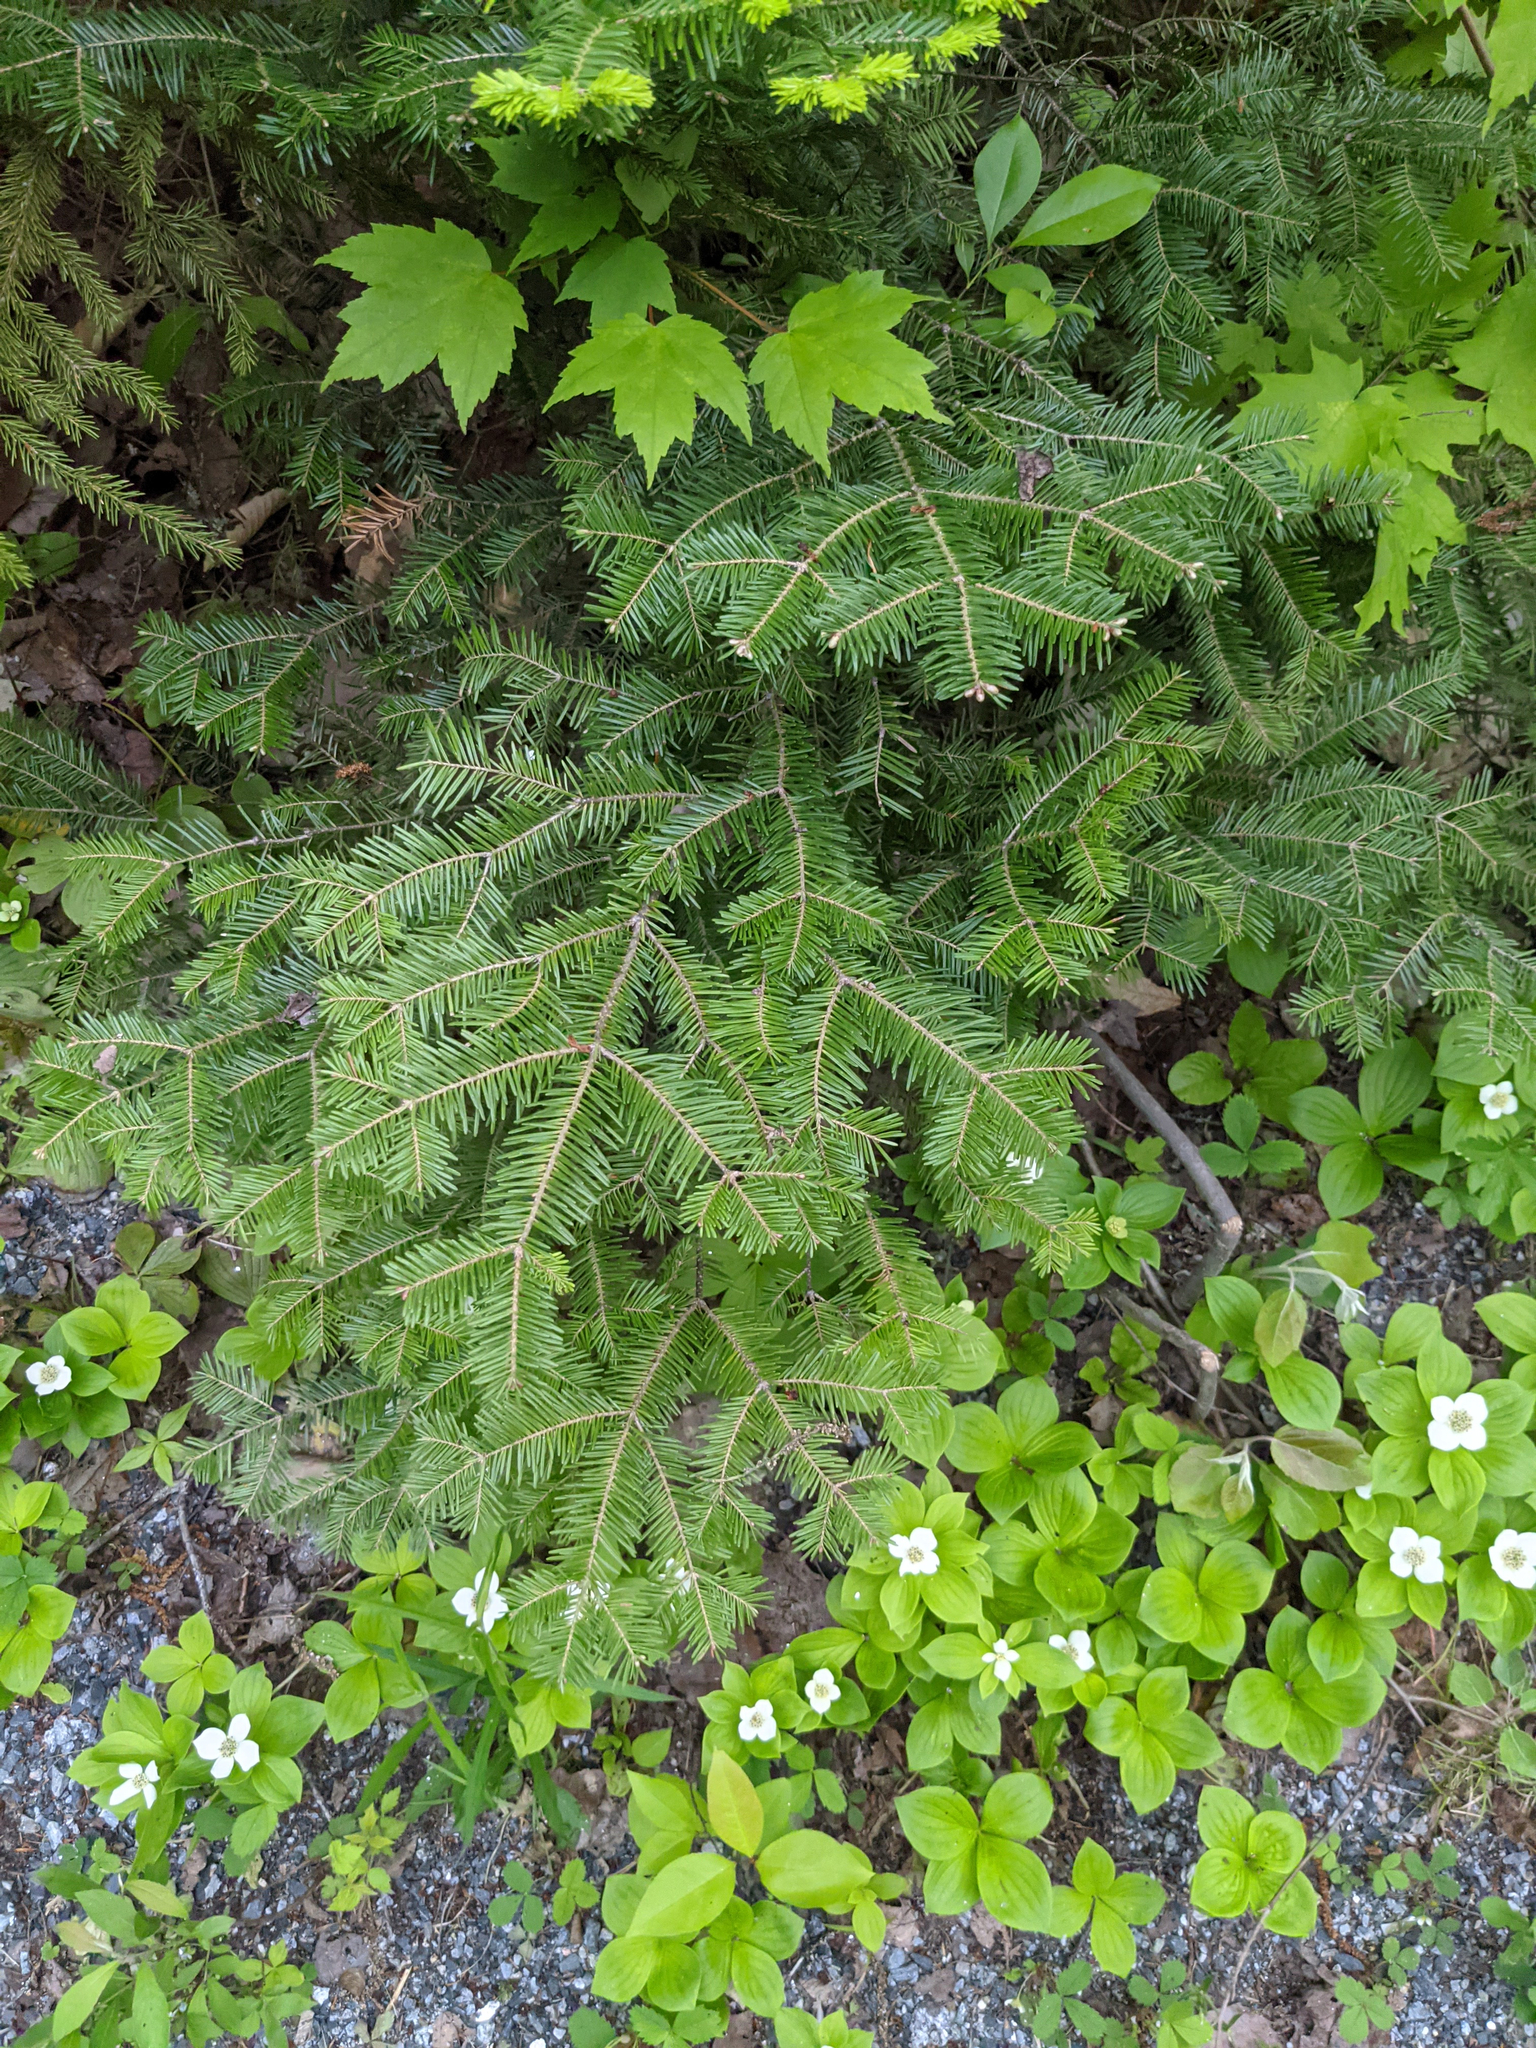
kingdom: Plantae
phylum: Tracheophyta
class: Pinopsida
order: Pinales
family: Pinaceae
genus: Abies
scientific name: Abies balsamea
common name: Balsam fir
